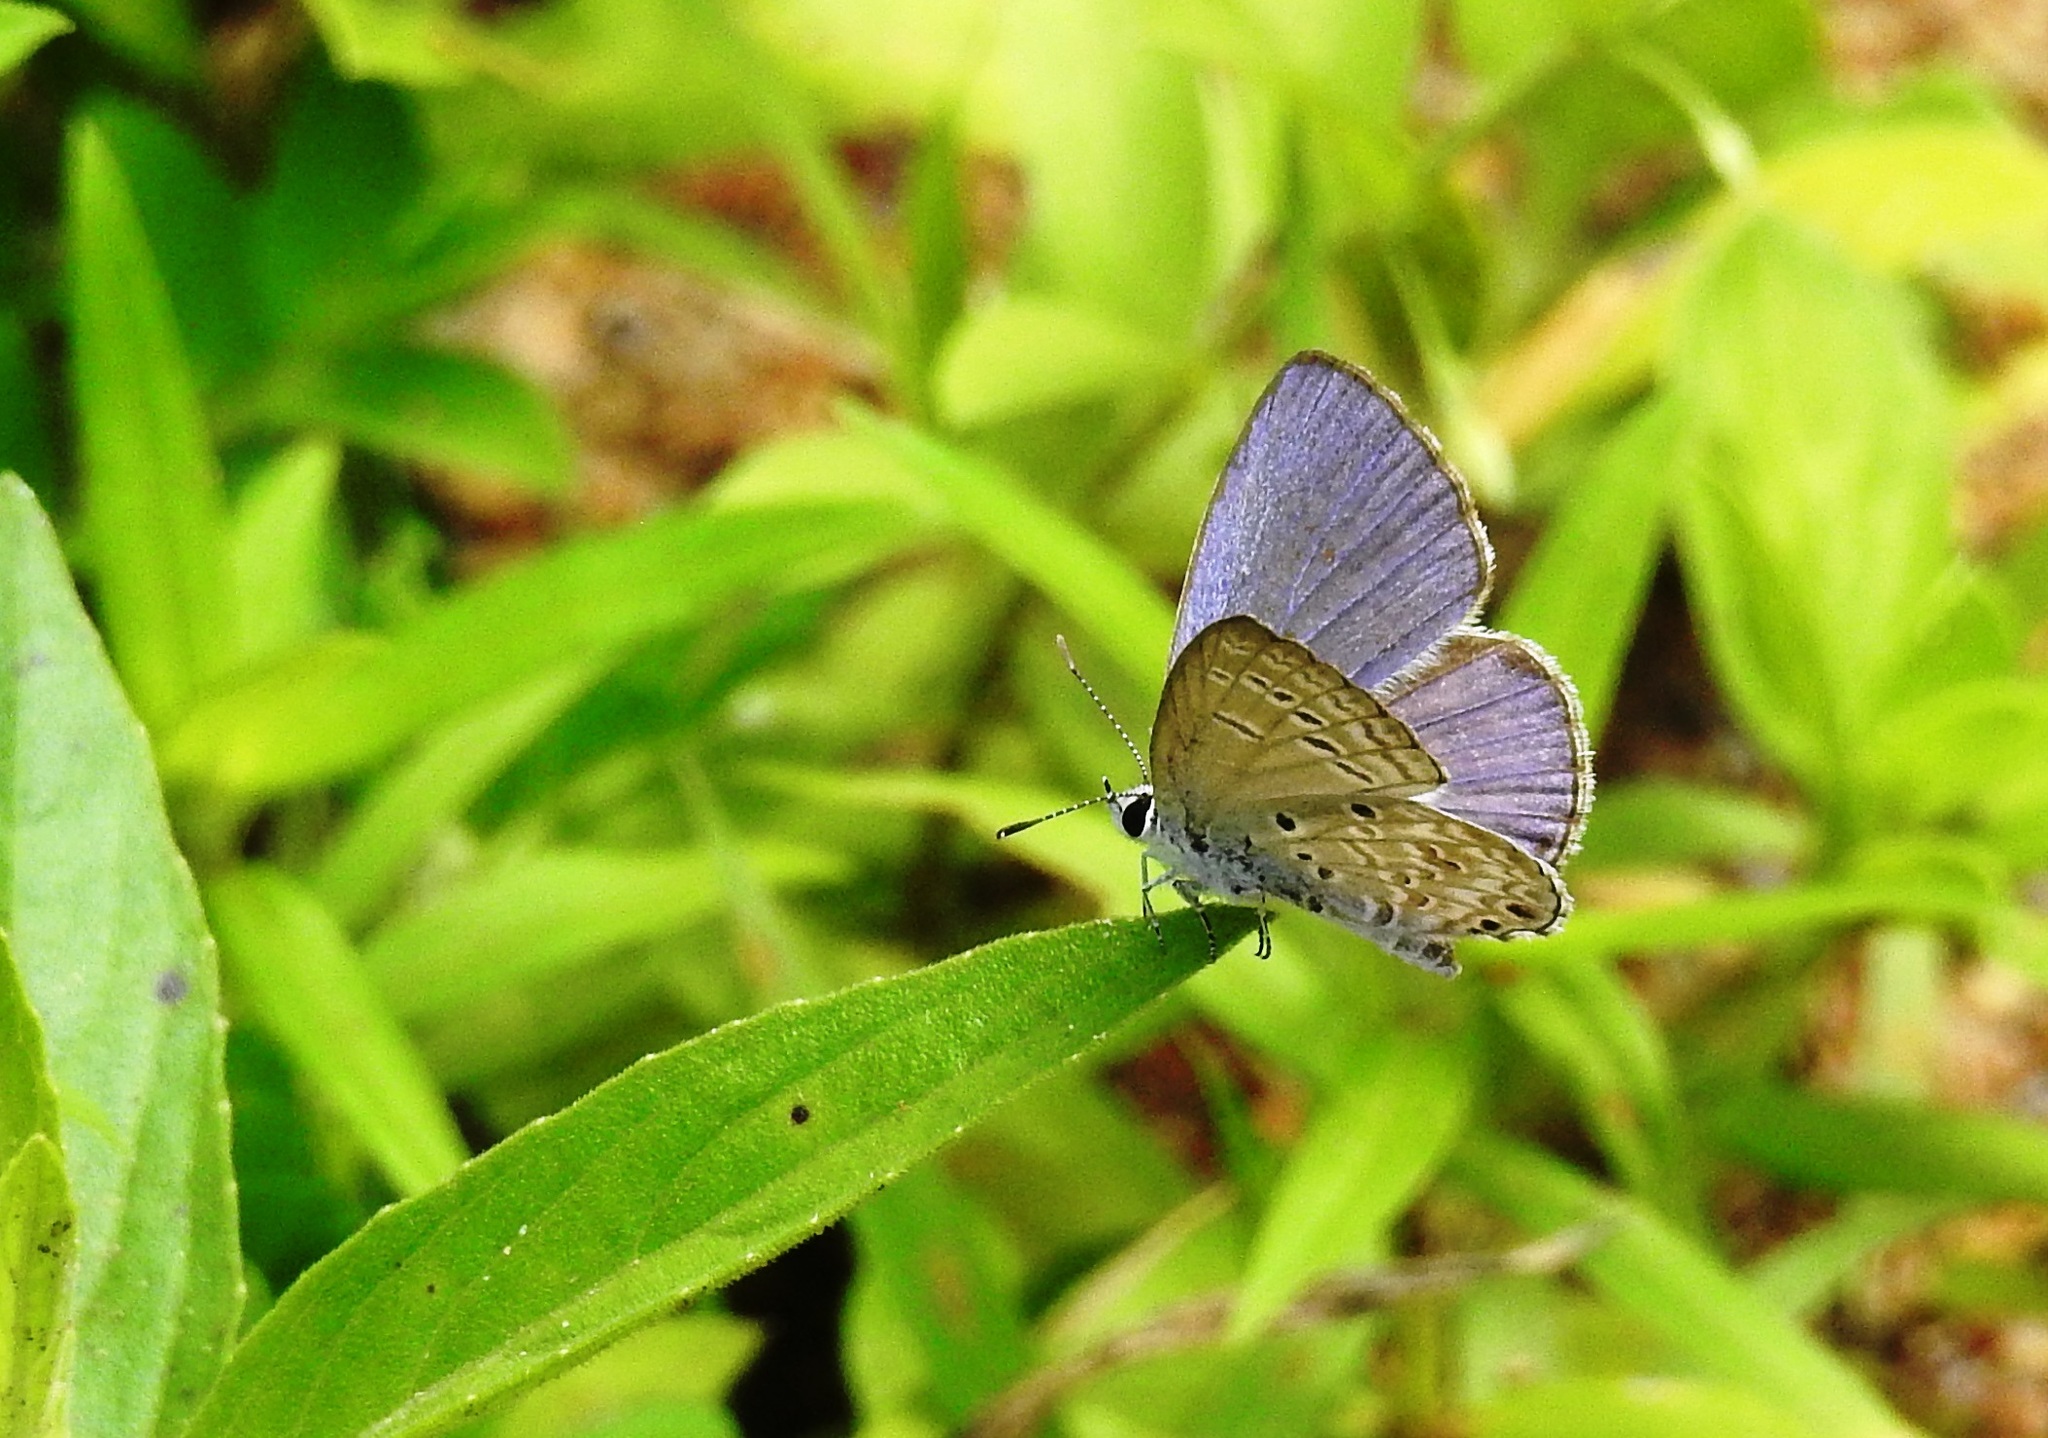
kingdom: Animalia
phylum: Arthropoda
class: Insecta
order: Lepidoptera
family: Lycaenidae
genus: Chilades
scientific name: Chilades laius
